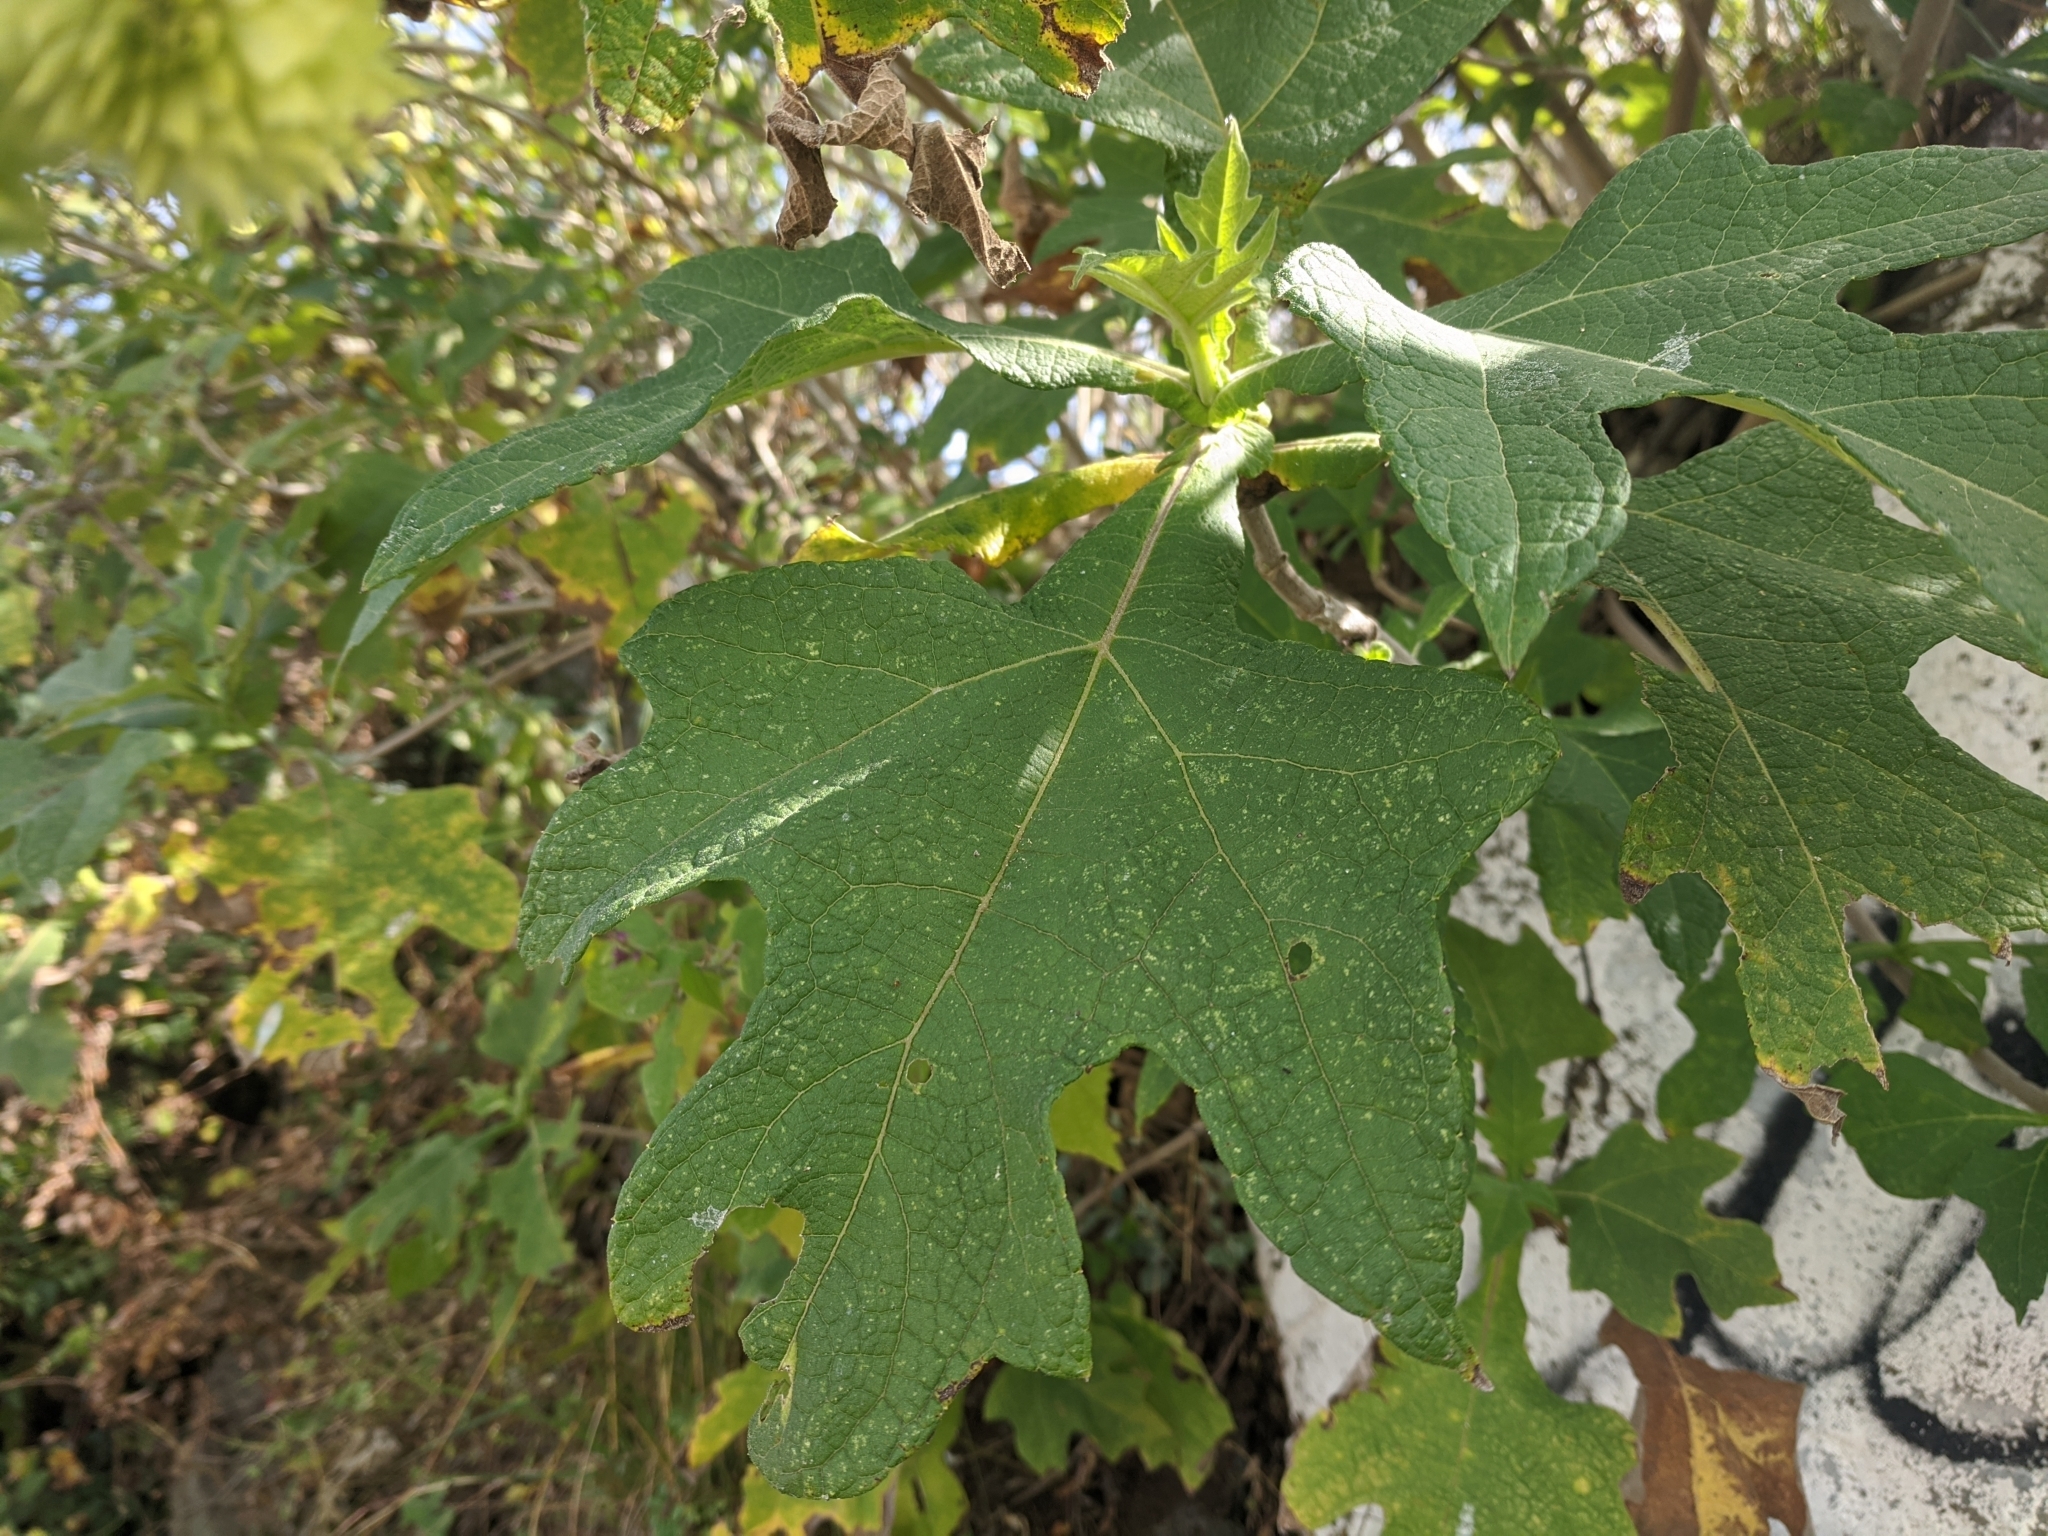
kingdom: Plantae
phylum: Tracheophyta
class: Magnoliopsida
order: Asterales
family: Asteraceae
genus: Montanoa
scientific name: Montanoa grandiflora
